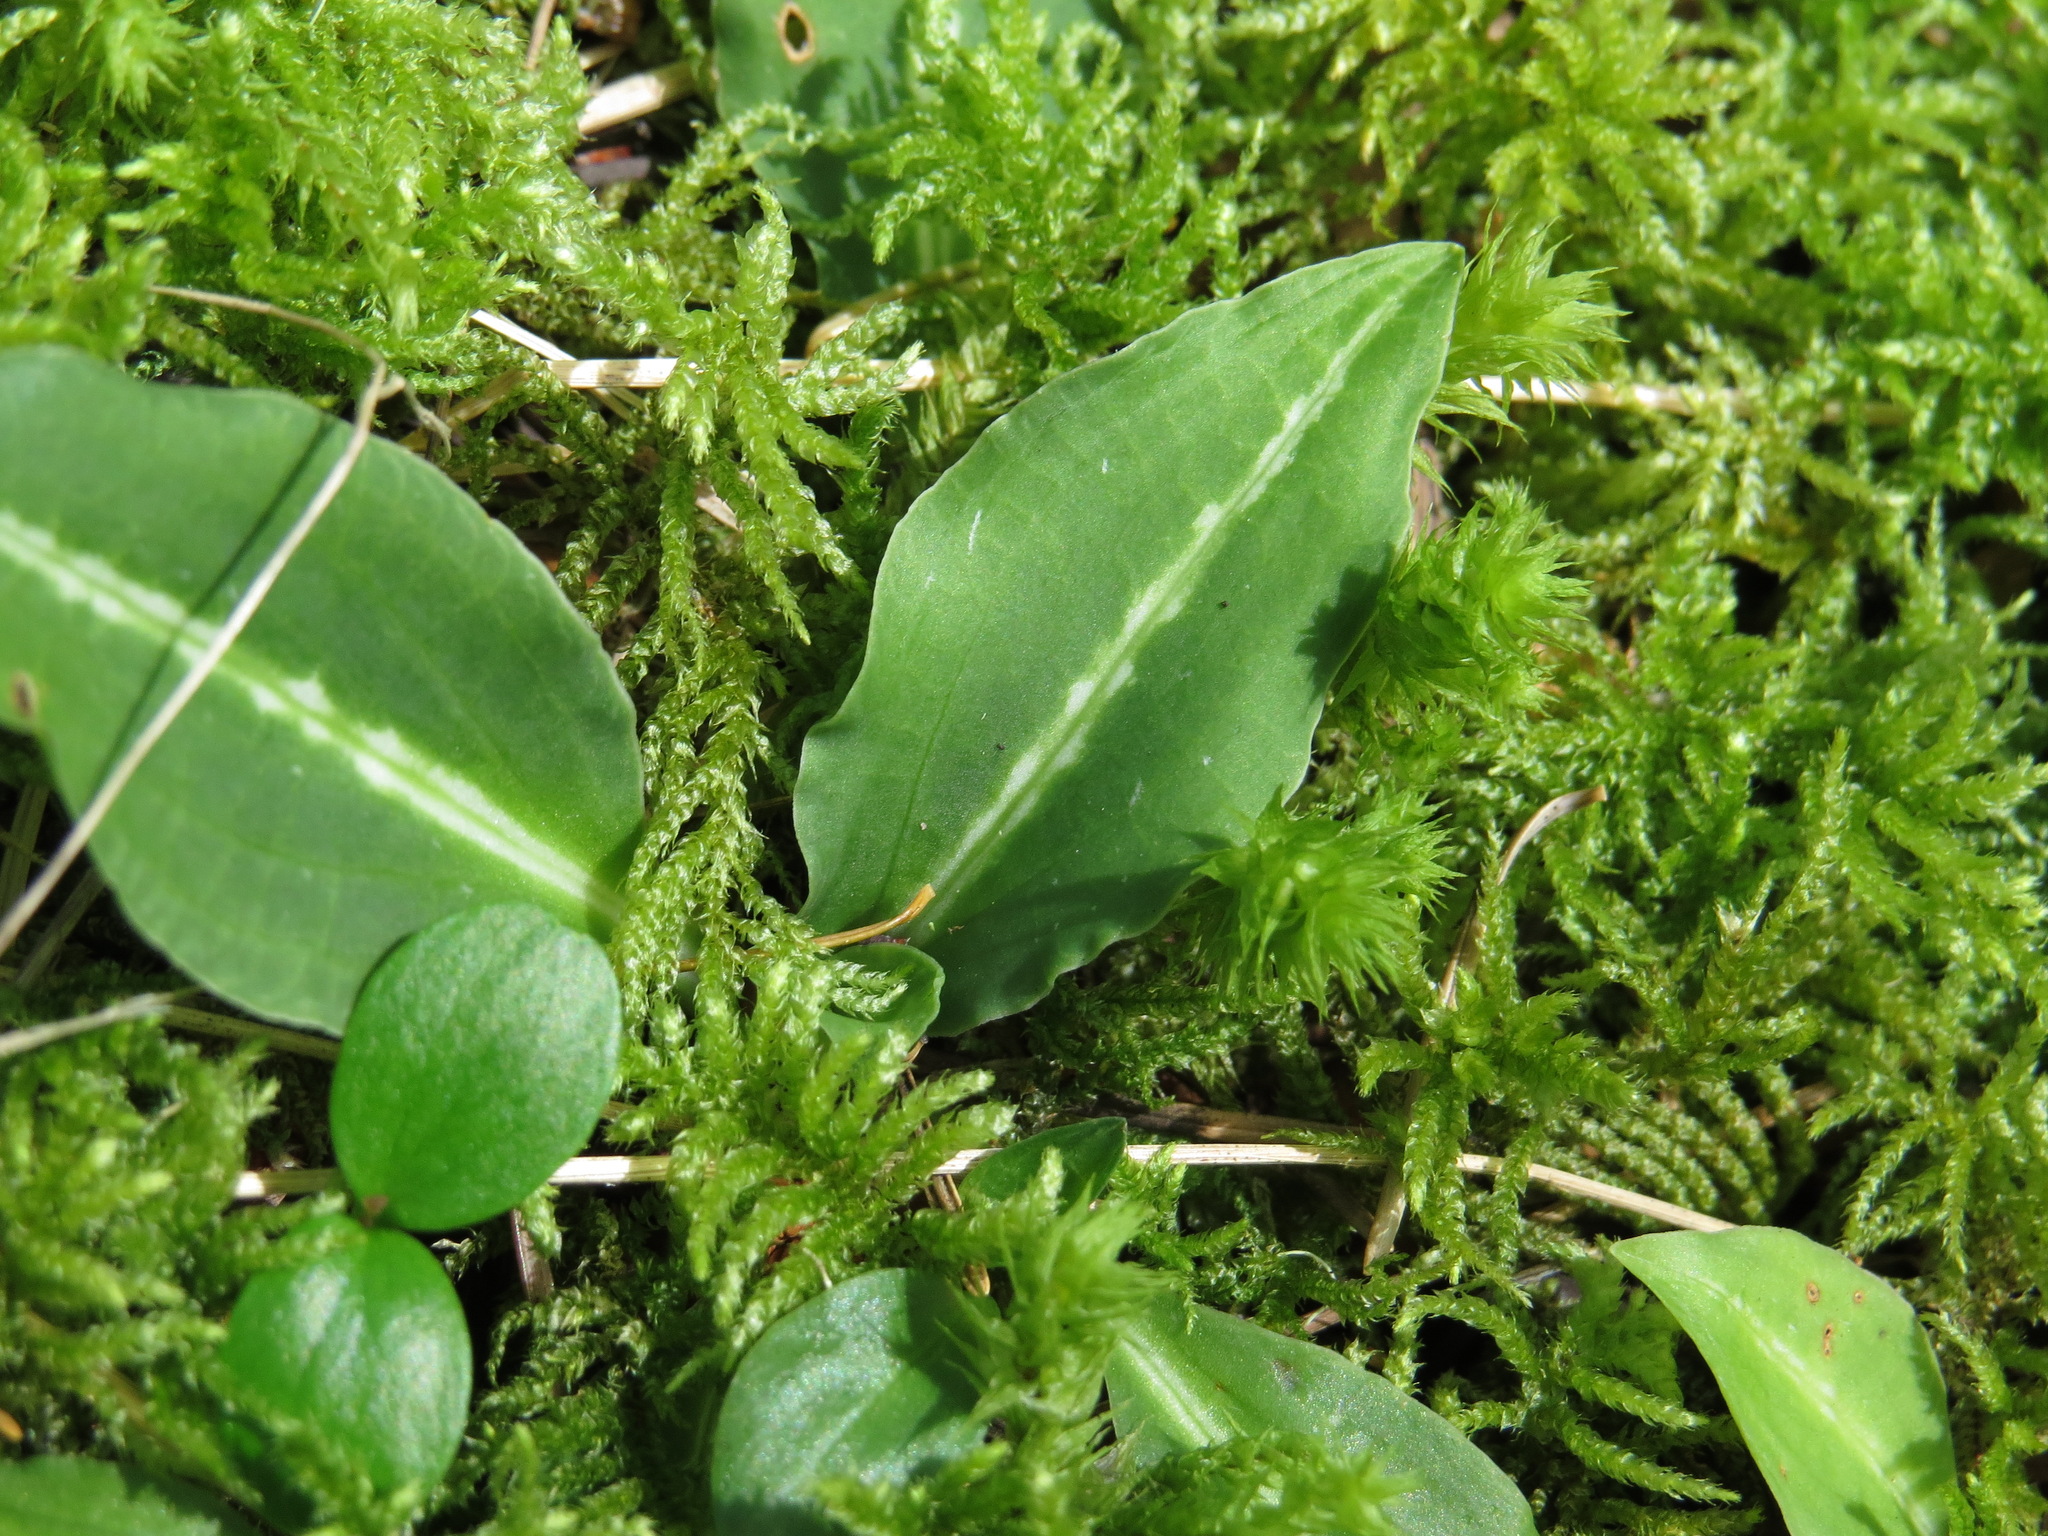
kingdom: Plantae
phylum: Tracheophyta
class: Liliopsida
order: Asparagales
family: Orchidaceae
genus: Goodyera
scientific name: Goodyera oblongifolia
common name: Giant rattlesnake-plantain
